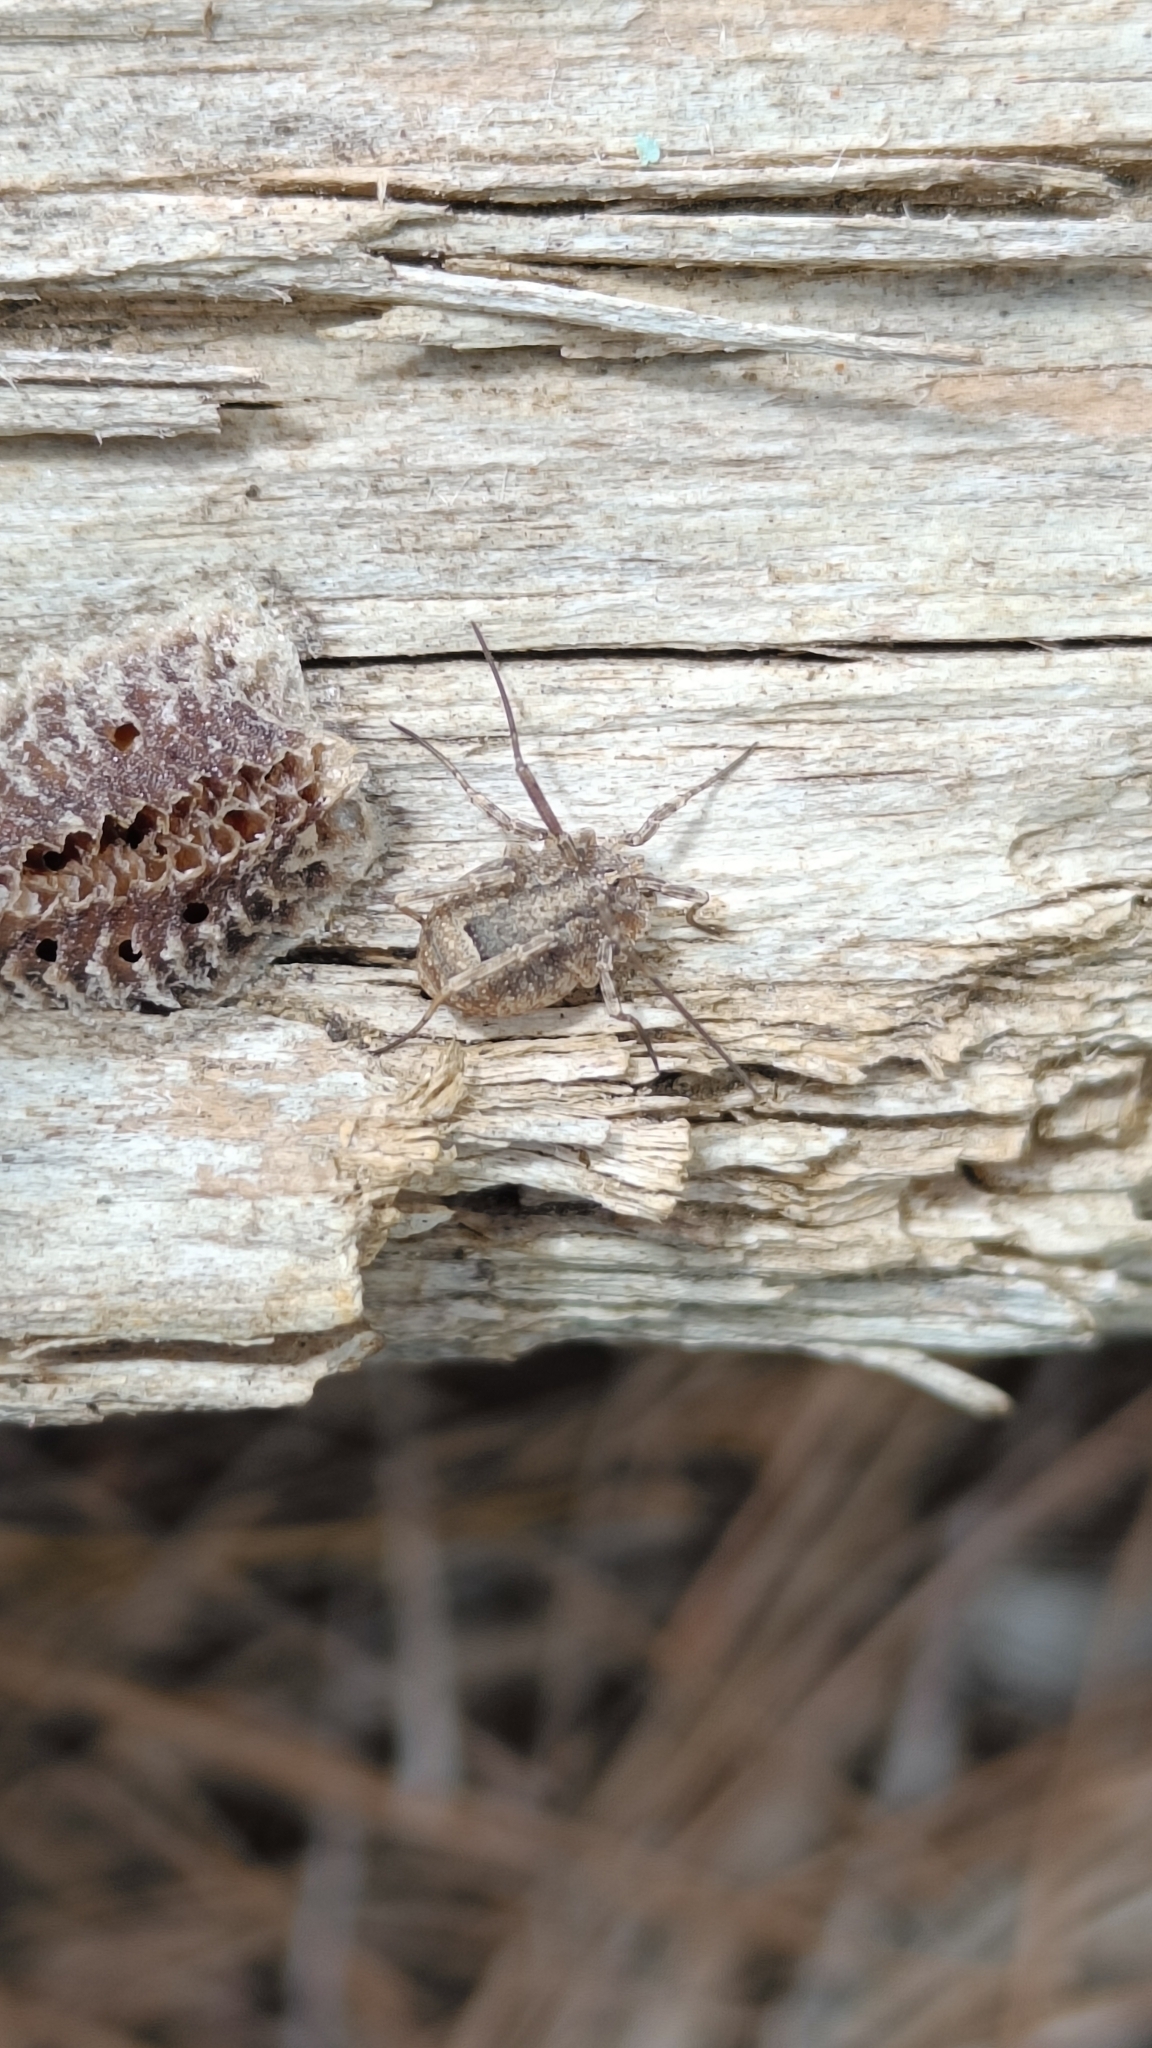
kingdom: Animalia
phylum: Arthropoda
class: Arachnida
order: Opiliones
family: Phalangiidae
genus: Odiellus
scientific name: Odiellus spinosus
